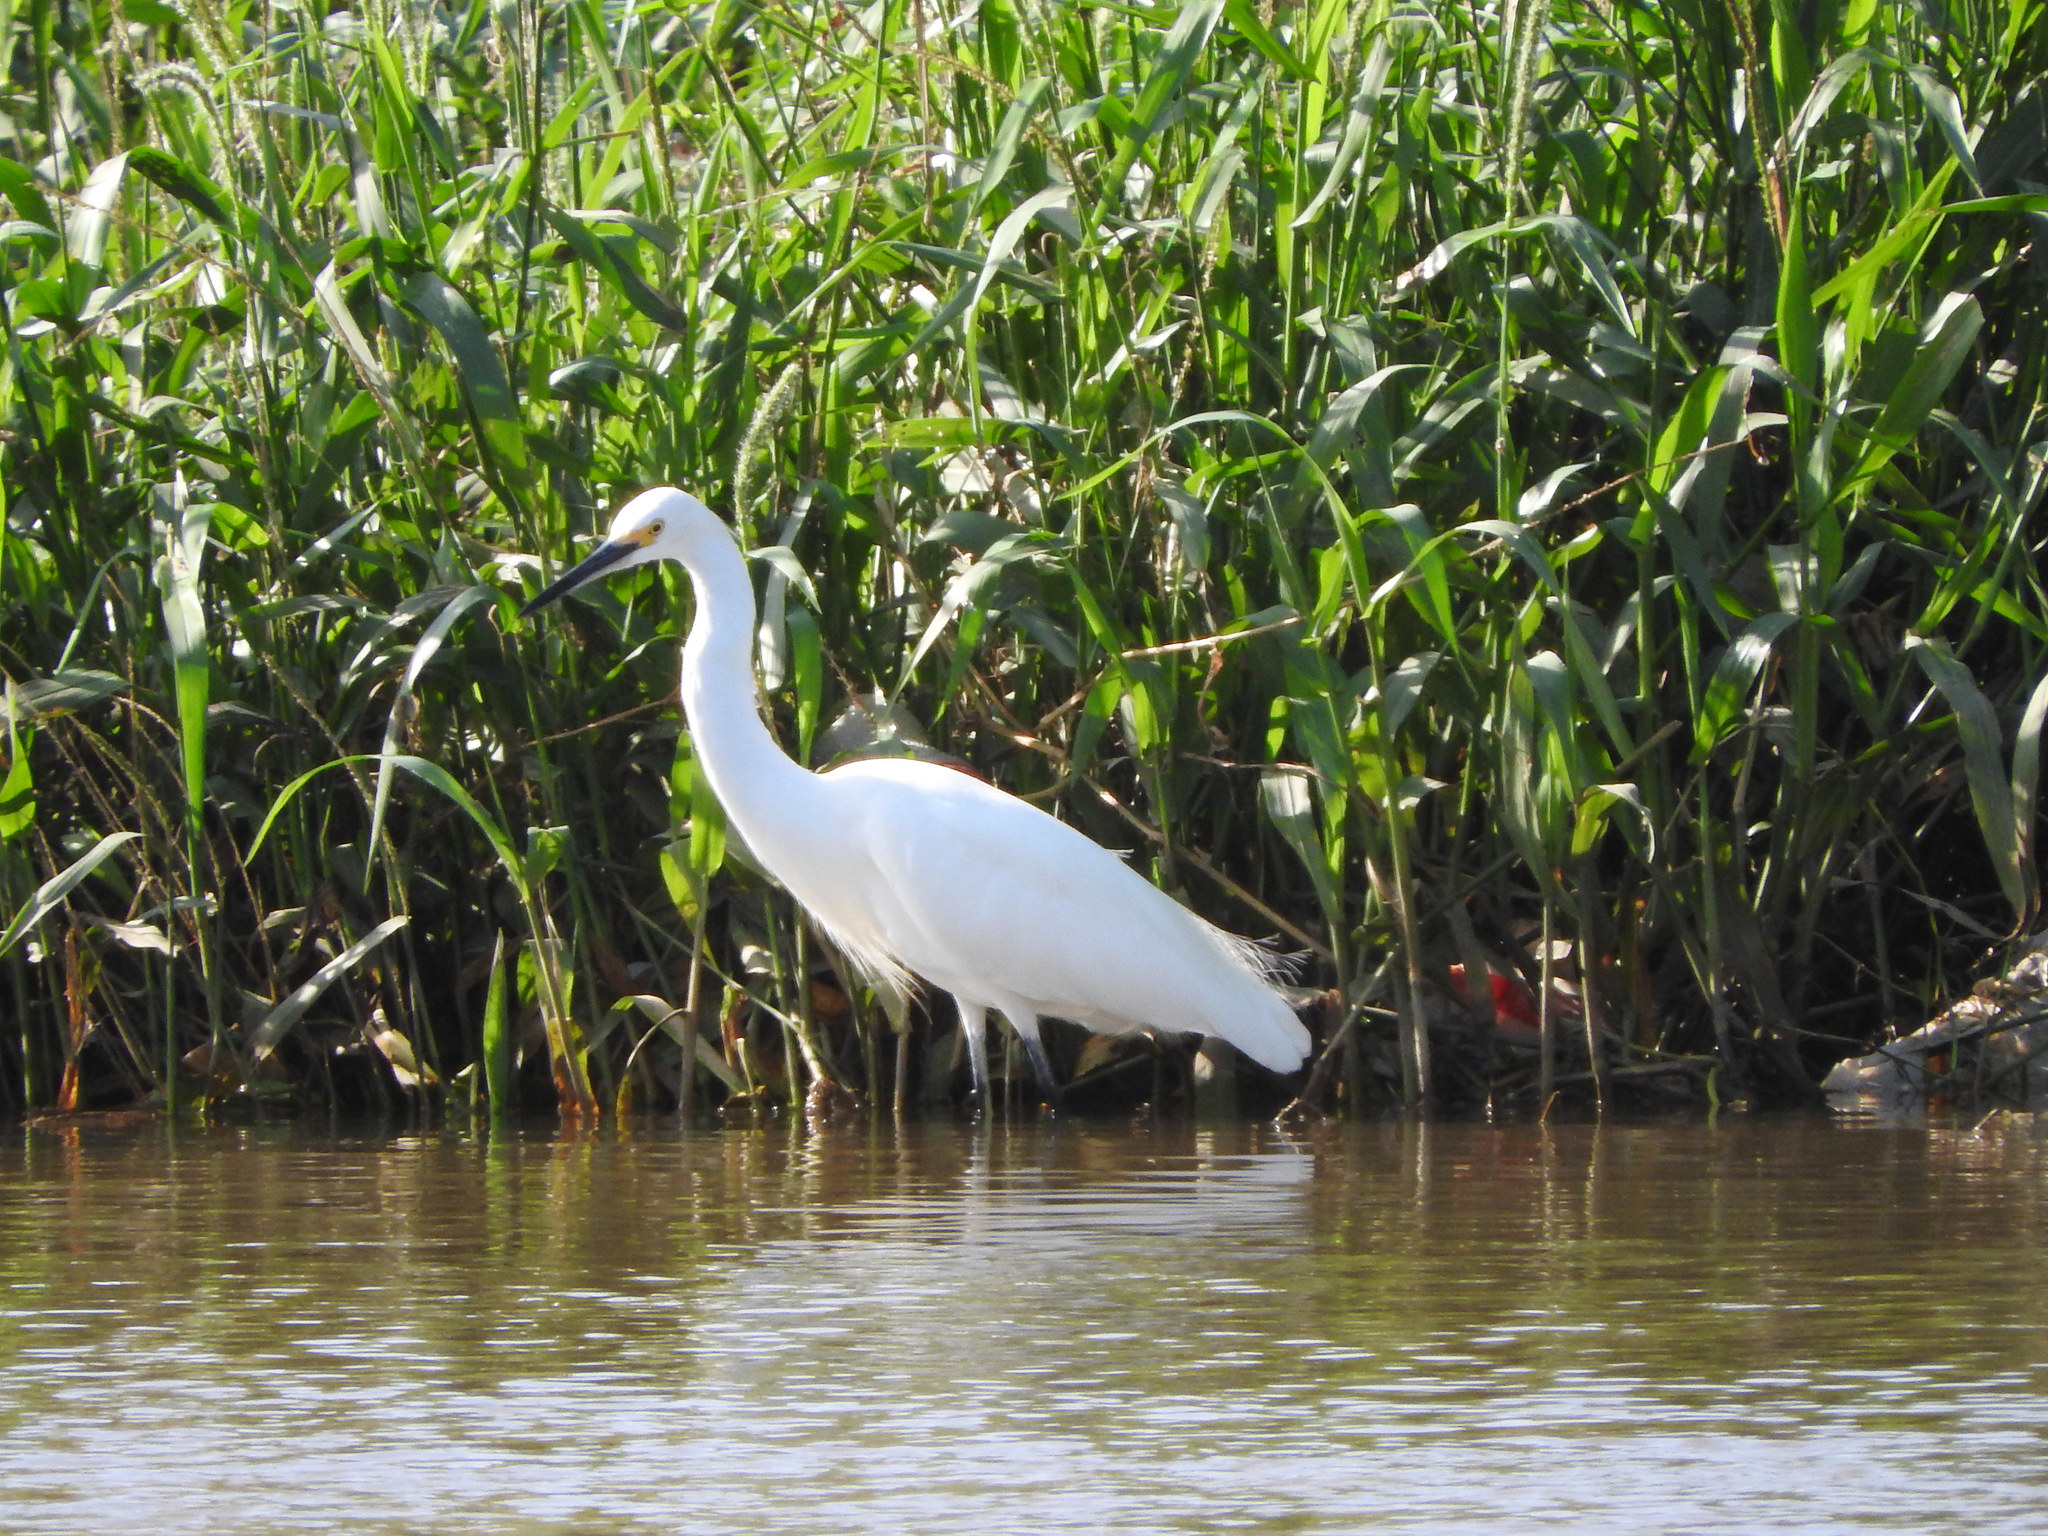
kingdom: Animalia
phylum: Chordata
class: Aves
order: Pelecaniformes
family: Ardeidae
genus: Egretta
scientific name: Egretta thula
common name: Snowy egret
